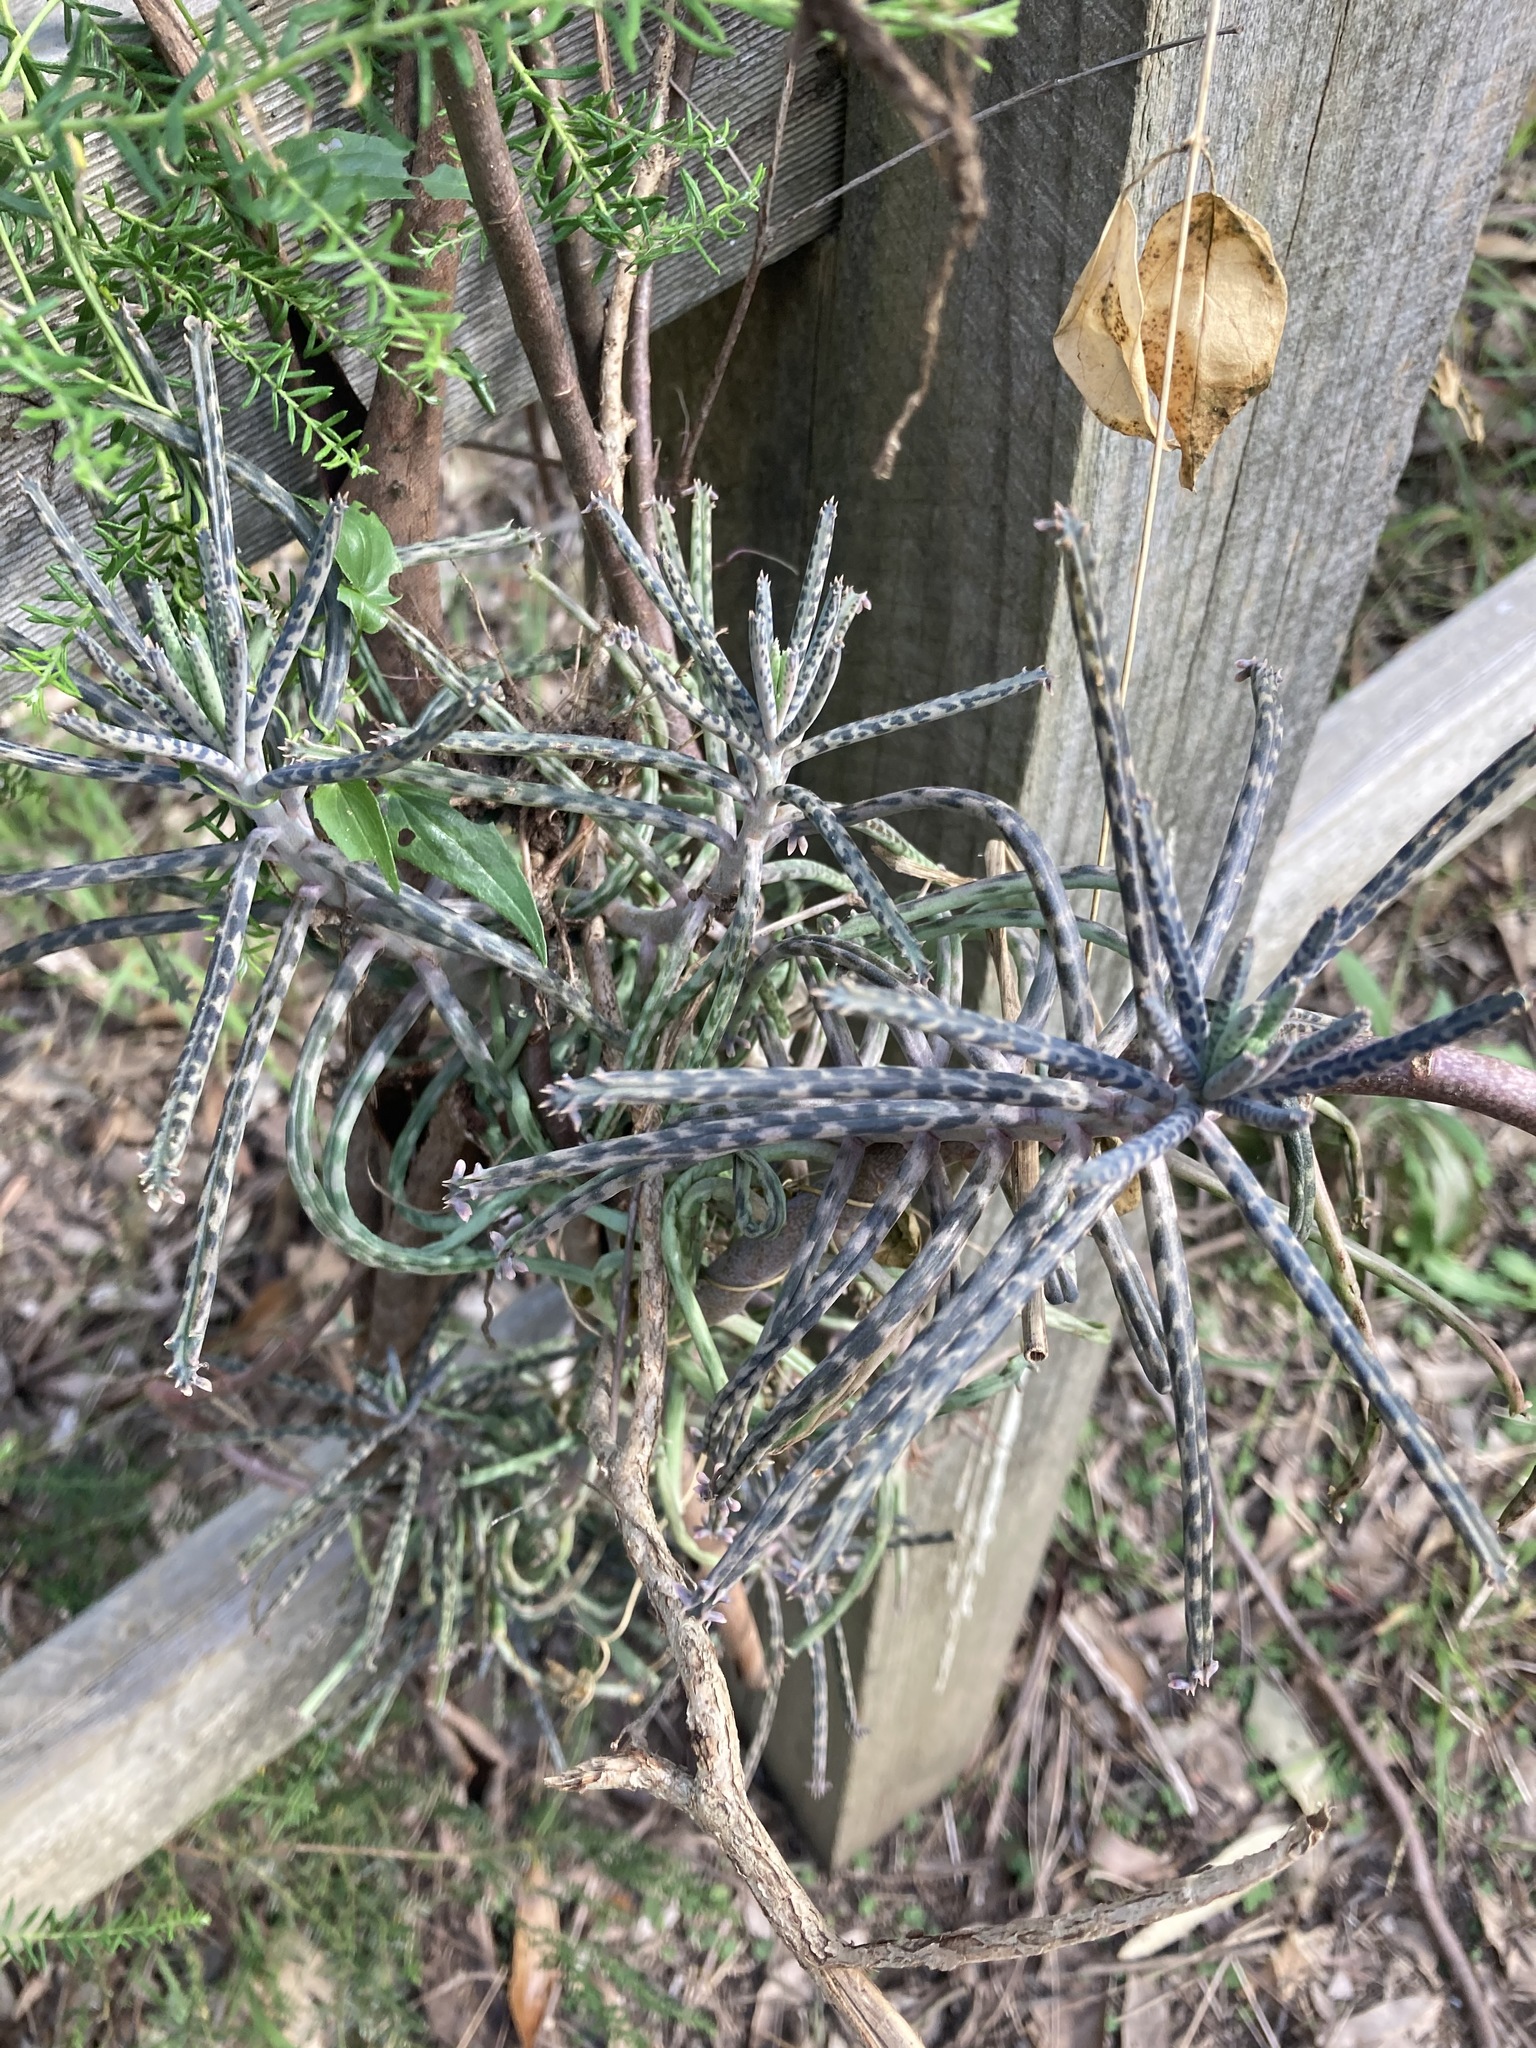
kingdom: Plantae
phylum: Tracheophyta
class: Magnoliopsida
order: Saxifragales
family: Crassulaceae
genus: Kalanchoe
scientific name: Kalanchoe delagoensis
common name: Chandelier plant
